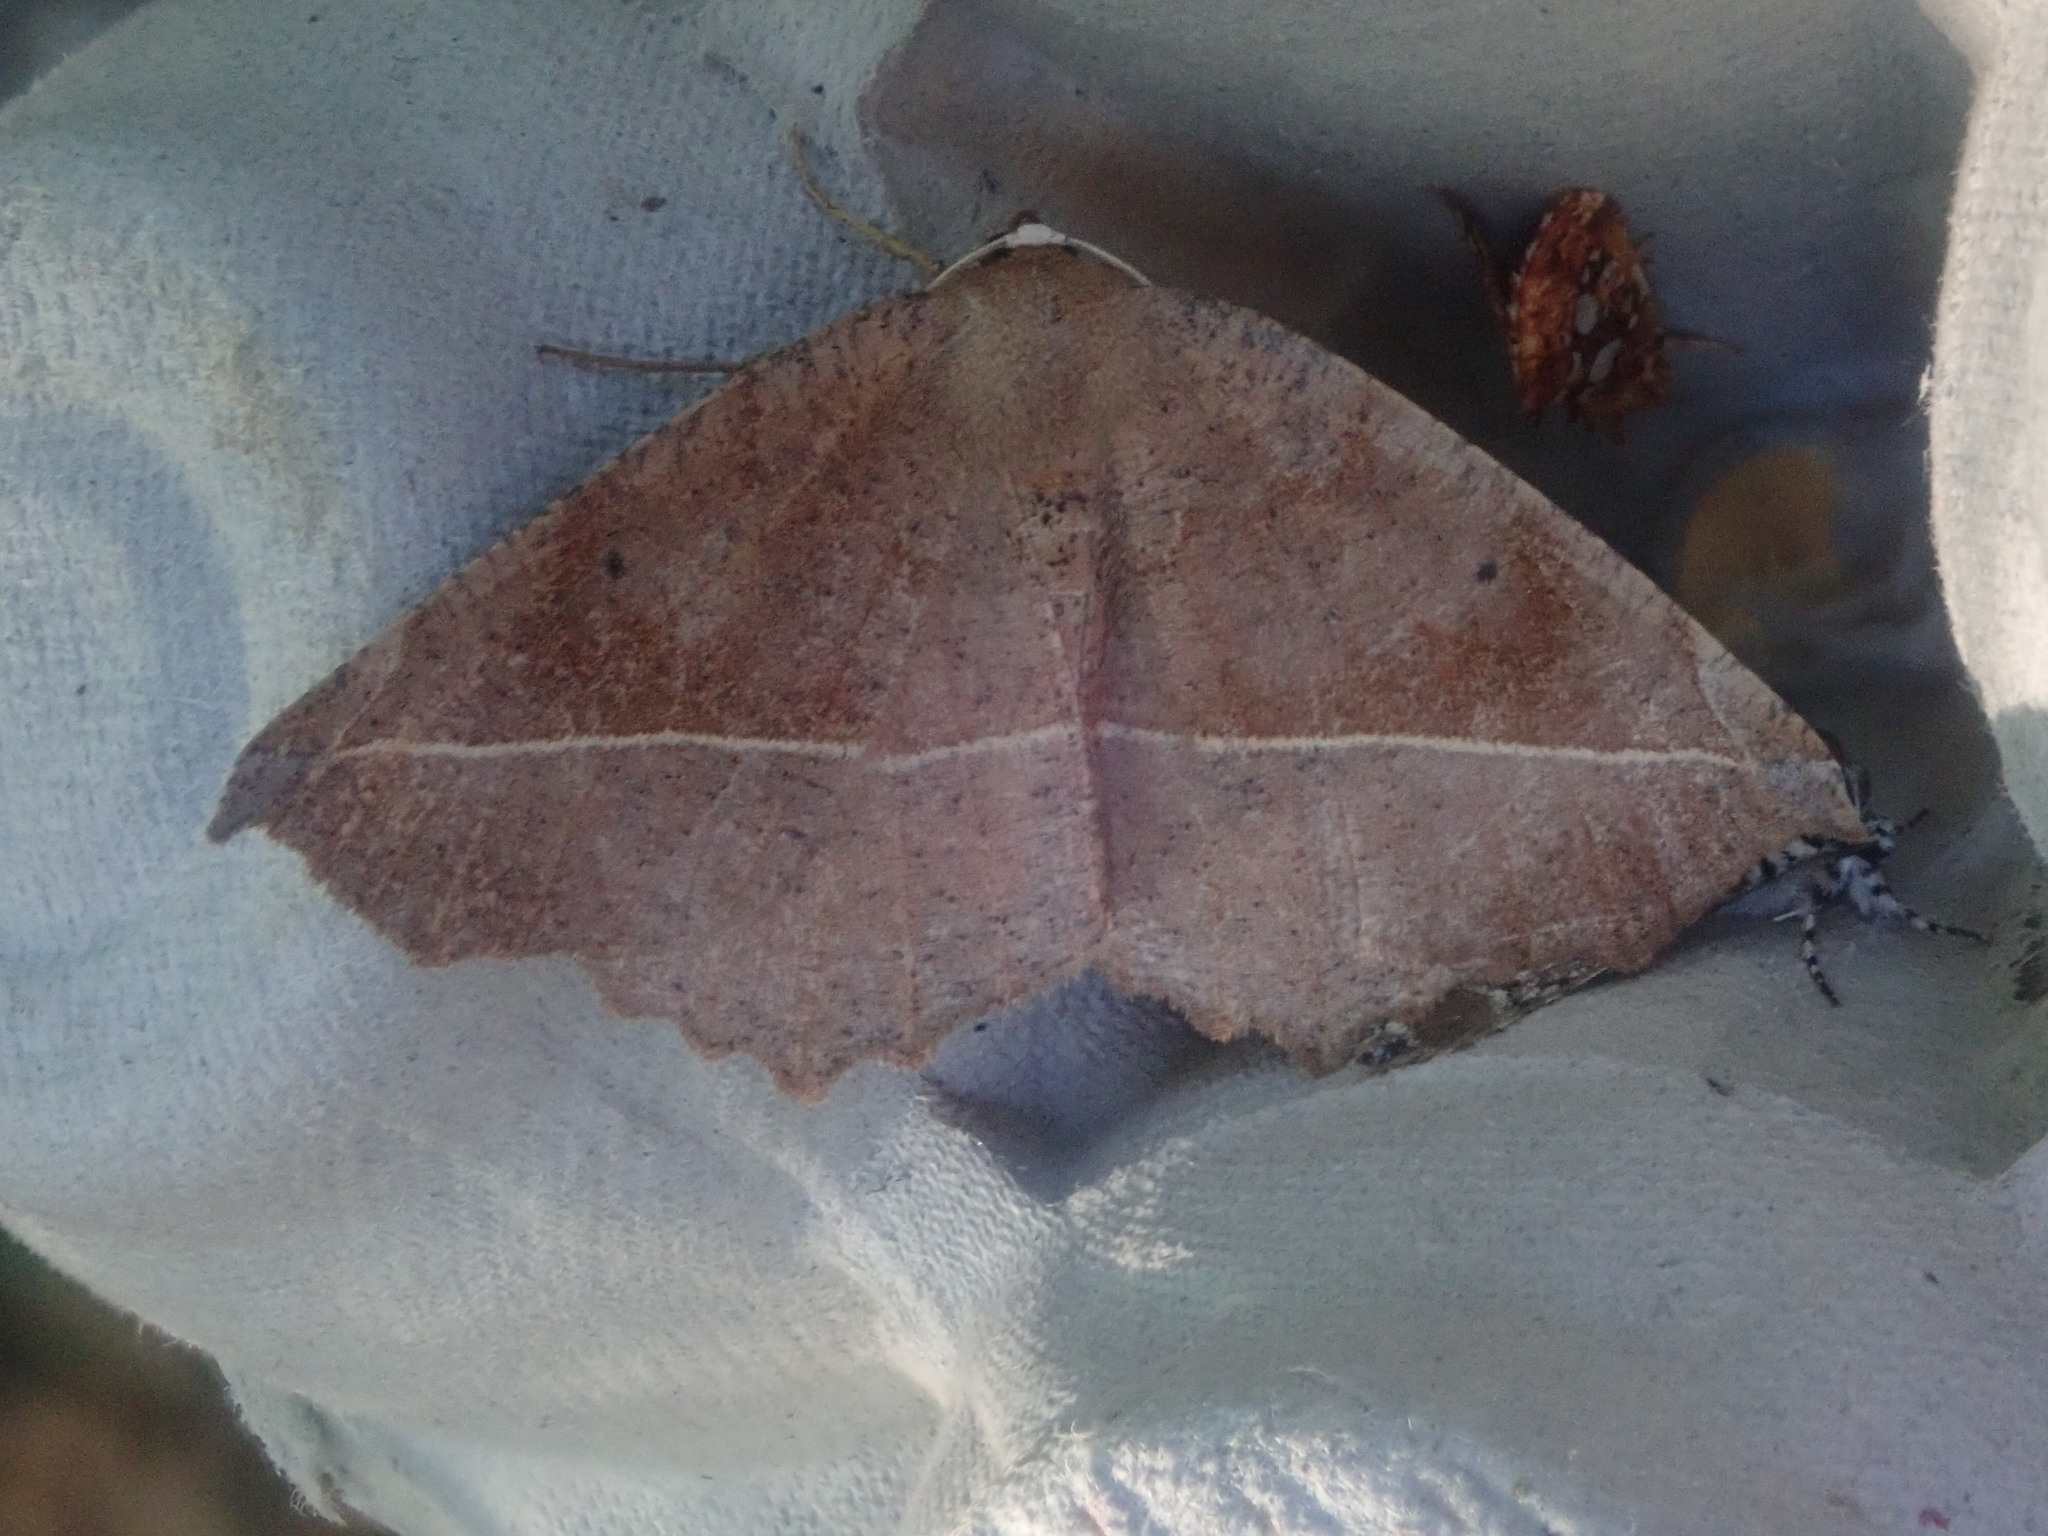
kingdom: Animalia
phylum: Arthropoda
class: Insecta
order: Lepidoptera
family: Geometridae
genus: Eutrapela
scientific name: Eutrapela clemataria
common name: Curved-toothed geometer
